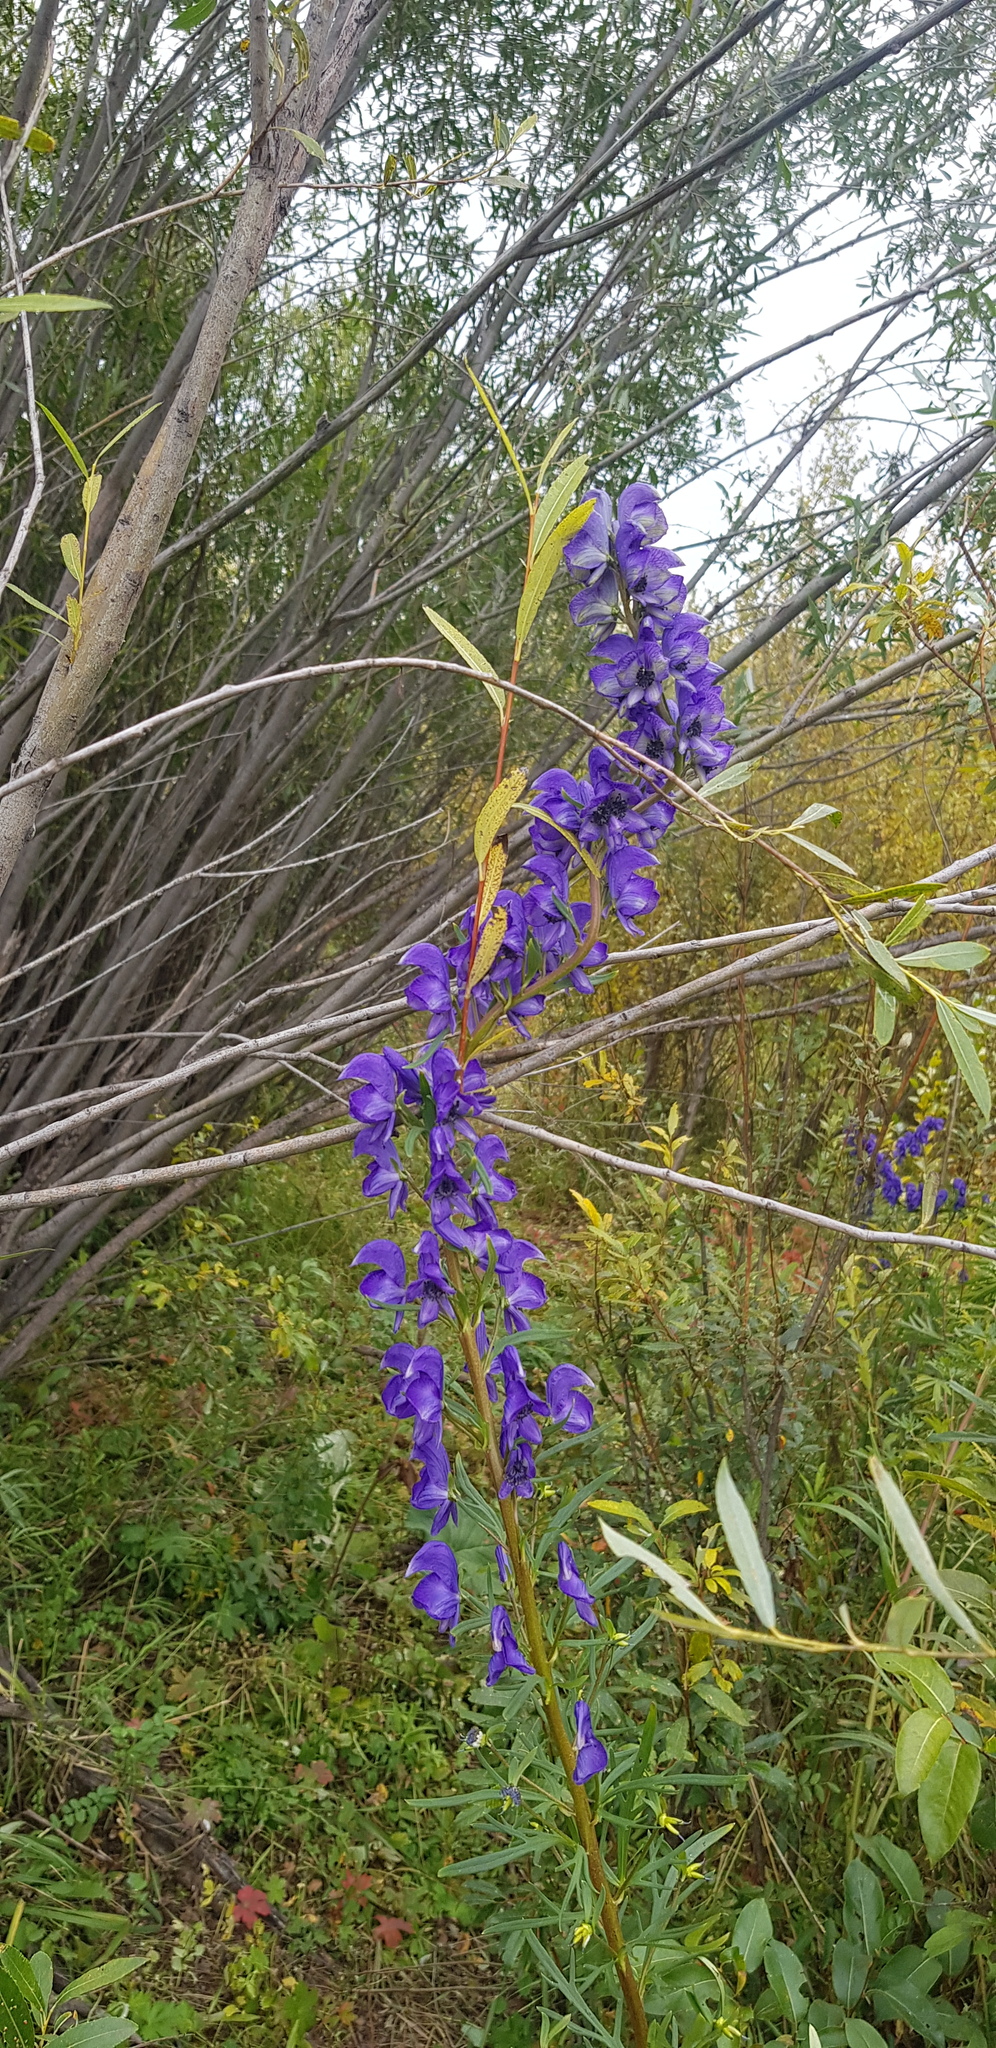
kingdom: Plantae
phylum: Tracheophyta
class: Magnoliopsida
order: Ranunculales
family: Ranunculaceae
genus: Aconitum
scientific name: Aconitum glandulosum
